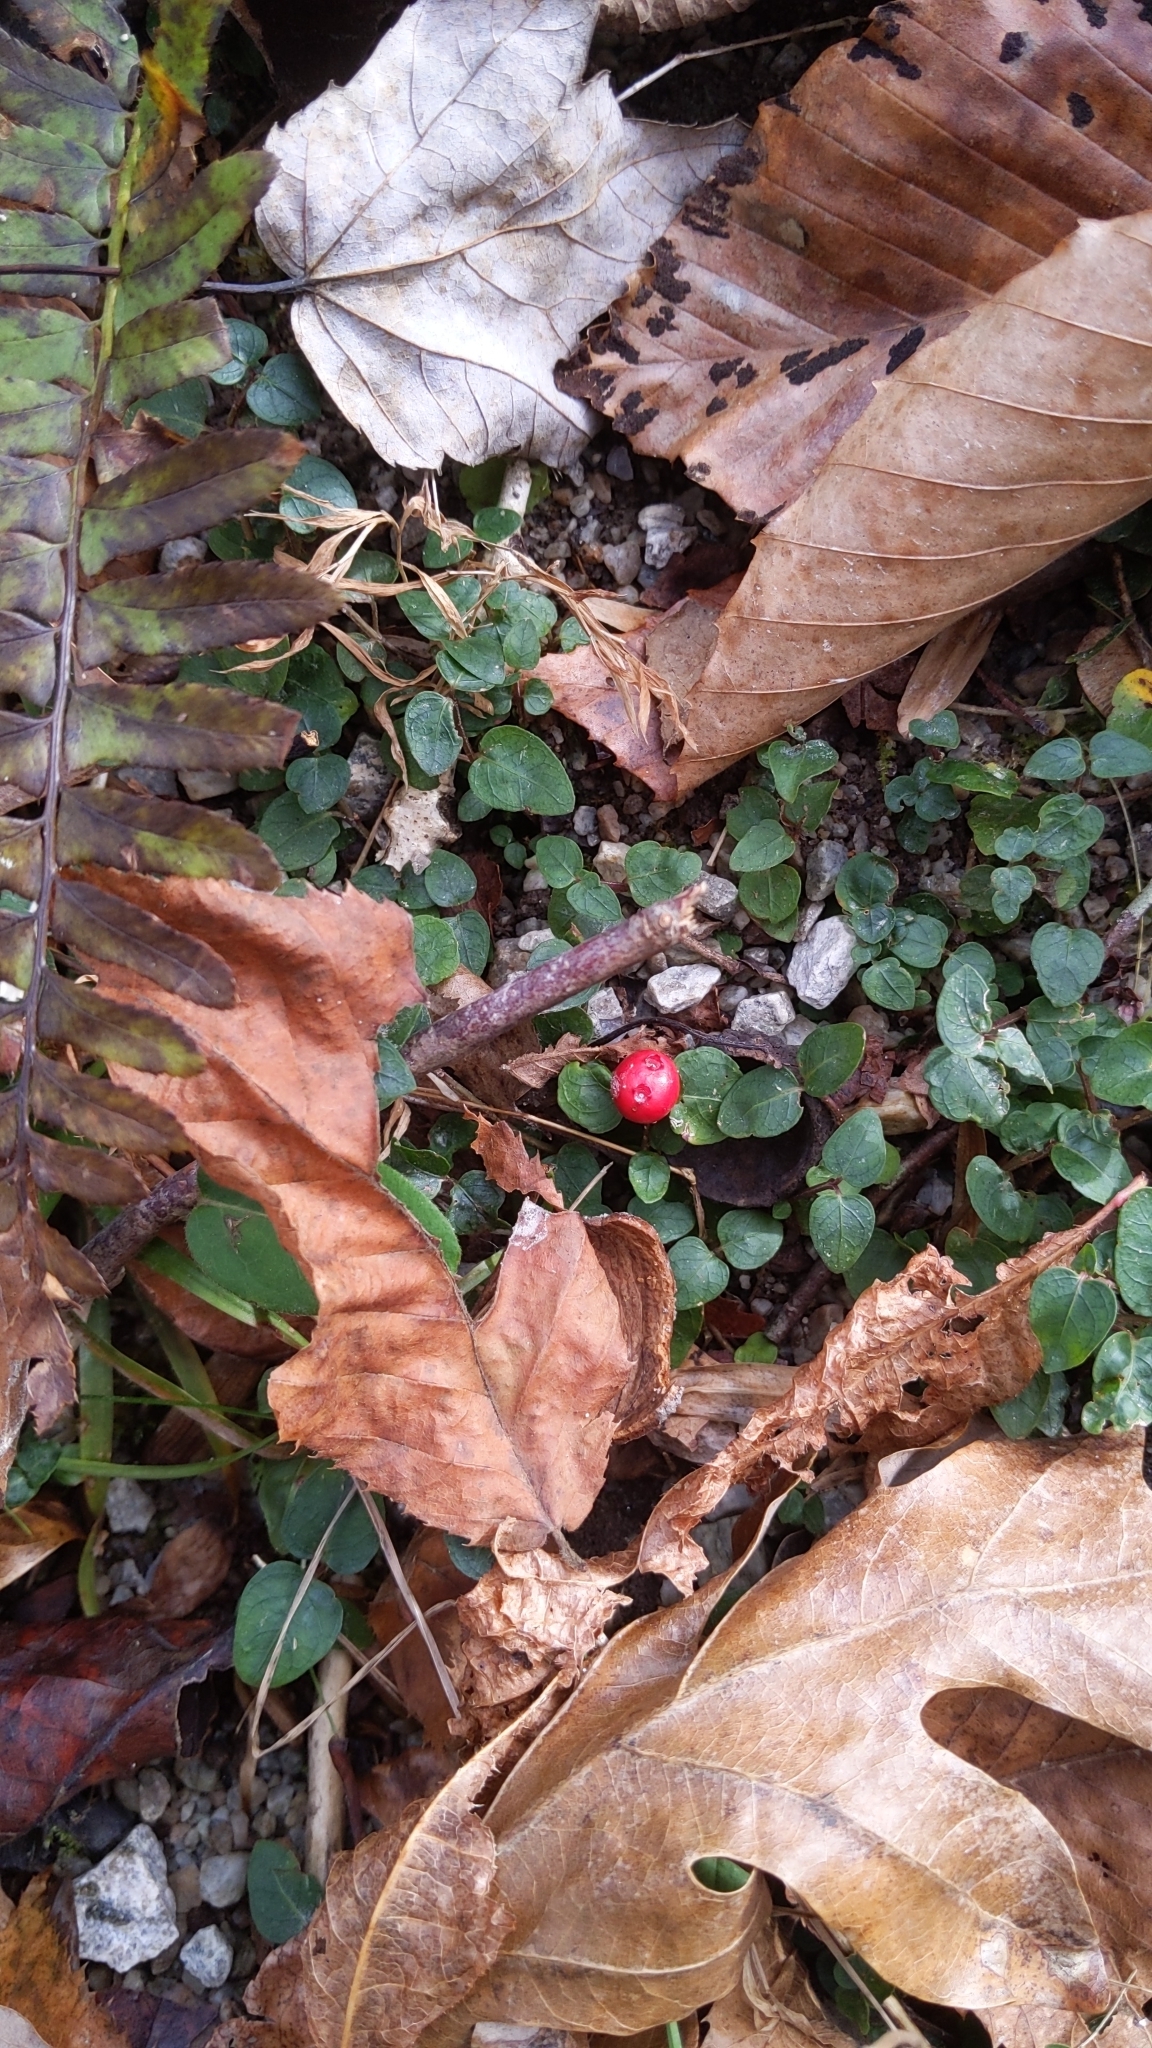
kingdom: Plantae
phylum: Tracheophyta
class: Magnoliopsida
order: Gentianales
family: Rubiaceae
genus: Mitchella
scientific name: Mitchella repens
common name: Partridge-berry
